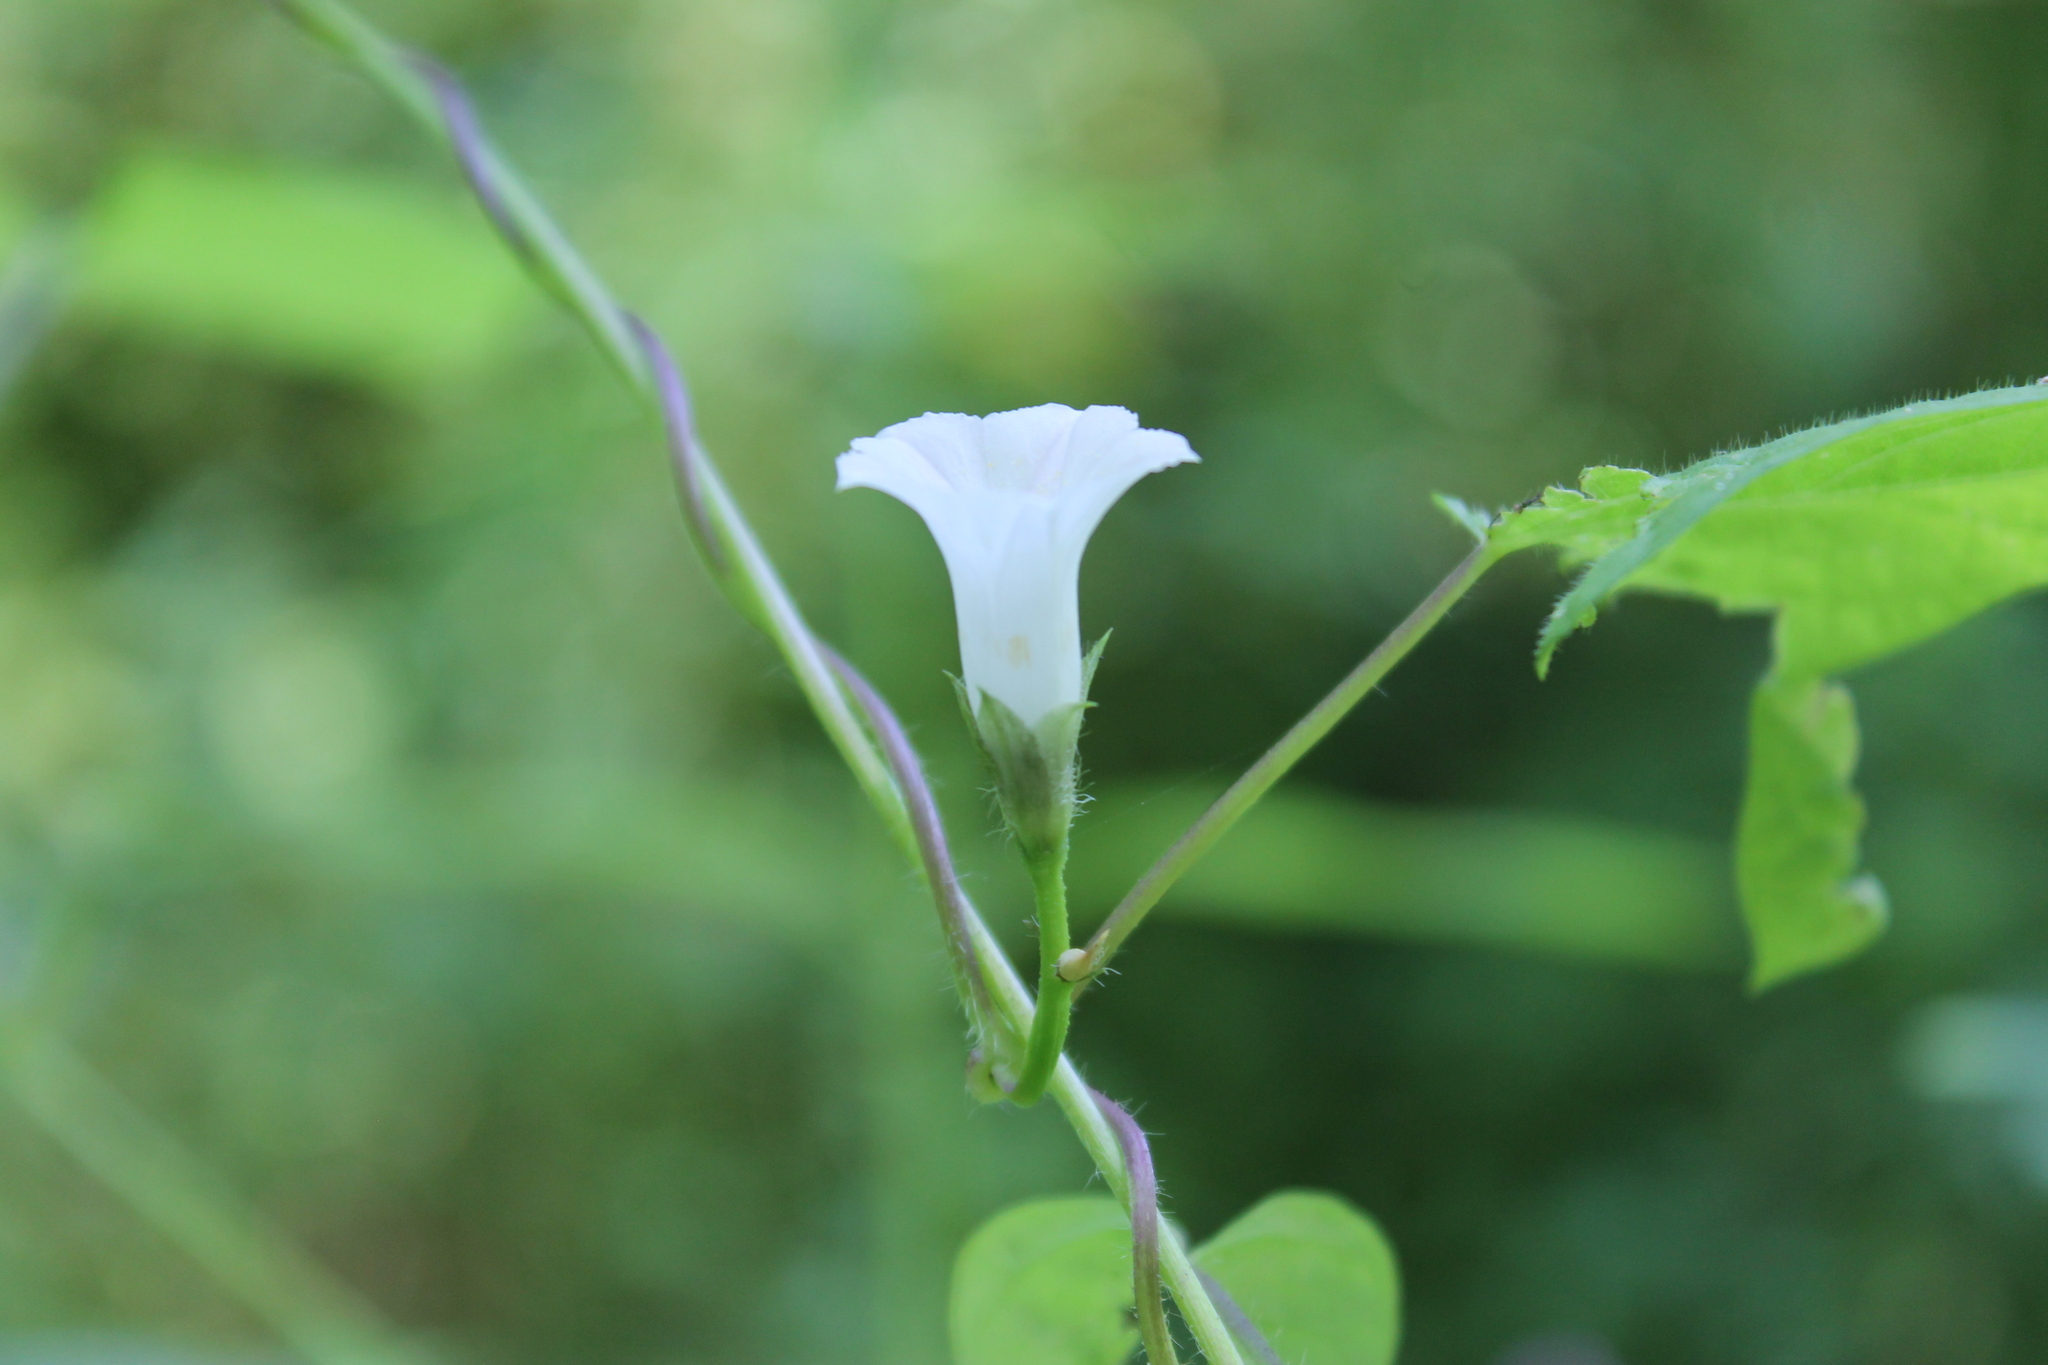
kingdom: Plantae
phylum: Tracheophyta
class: Magnoliopsida
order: Solanales
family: Convolvulaceae
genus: Ipomoea
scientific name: Ipomoea lacunosa
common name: White morning-glory
